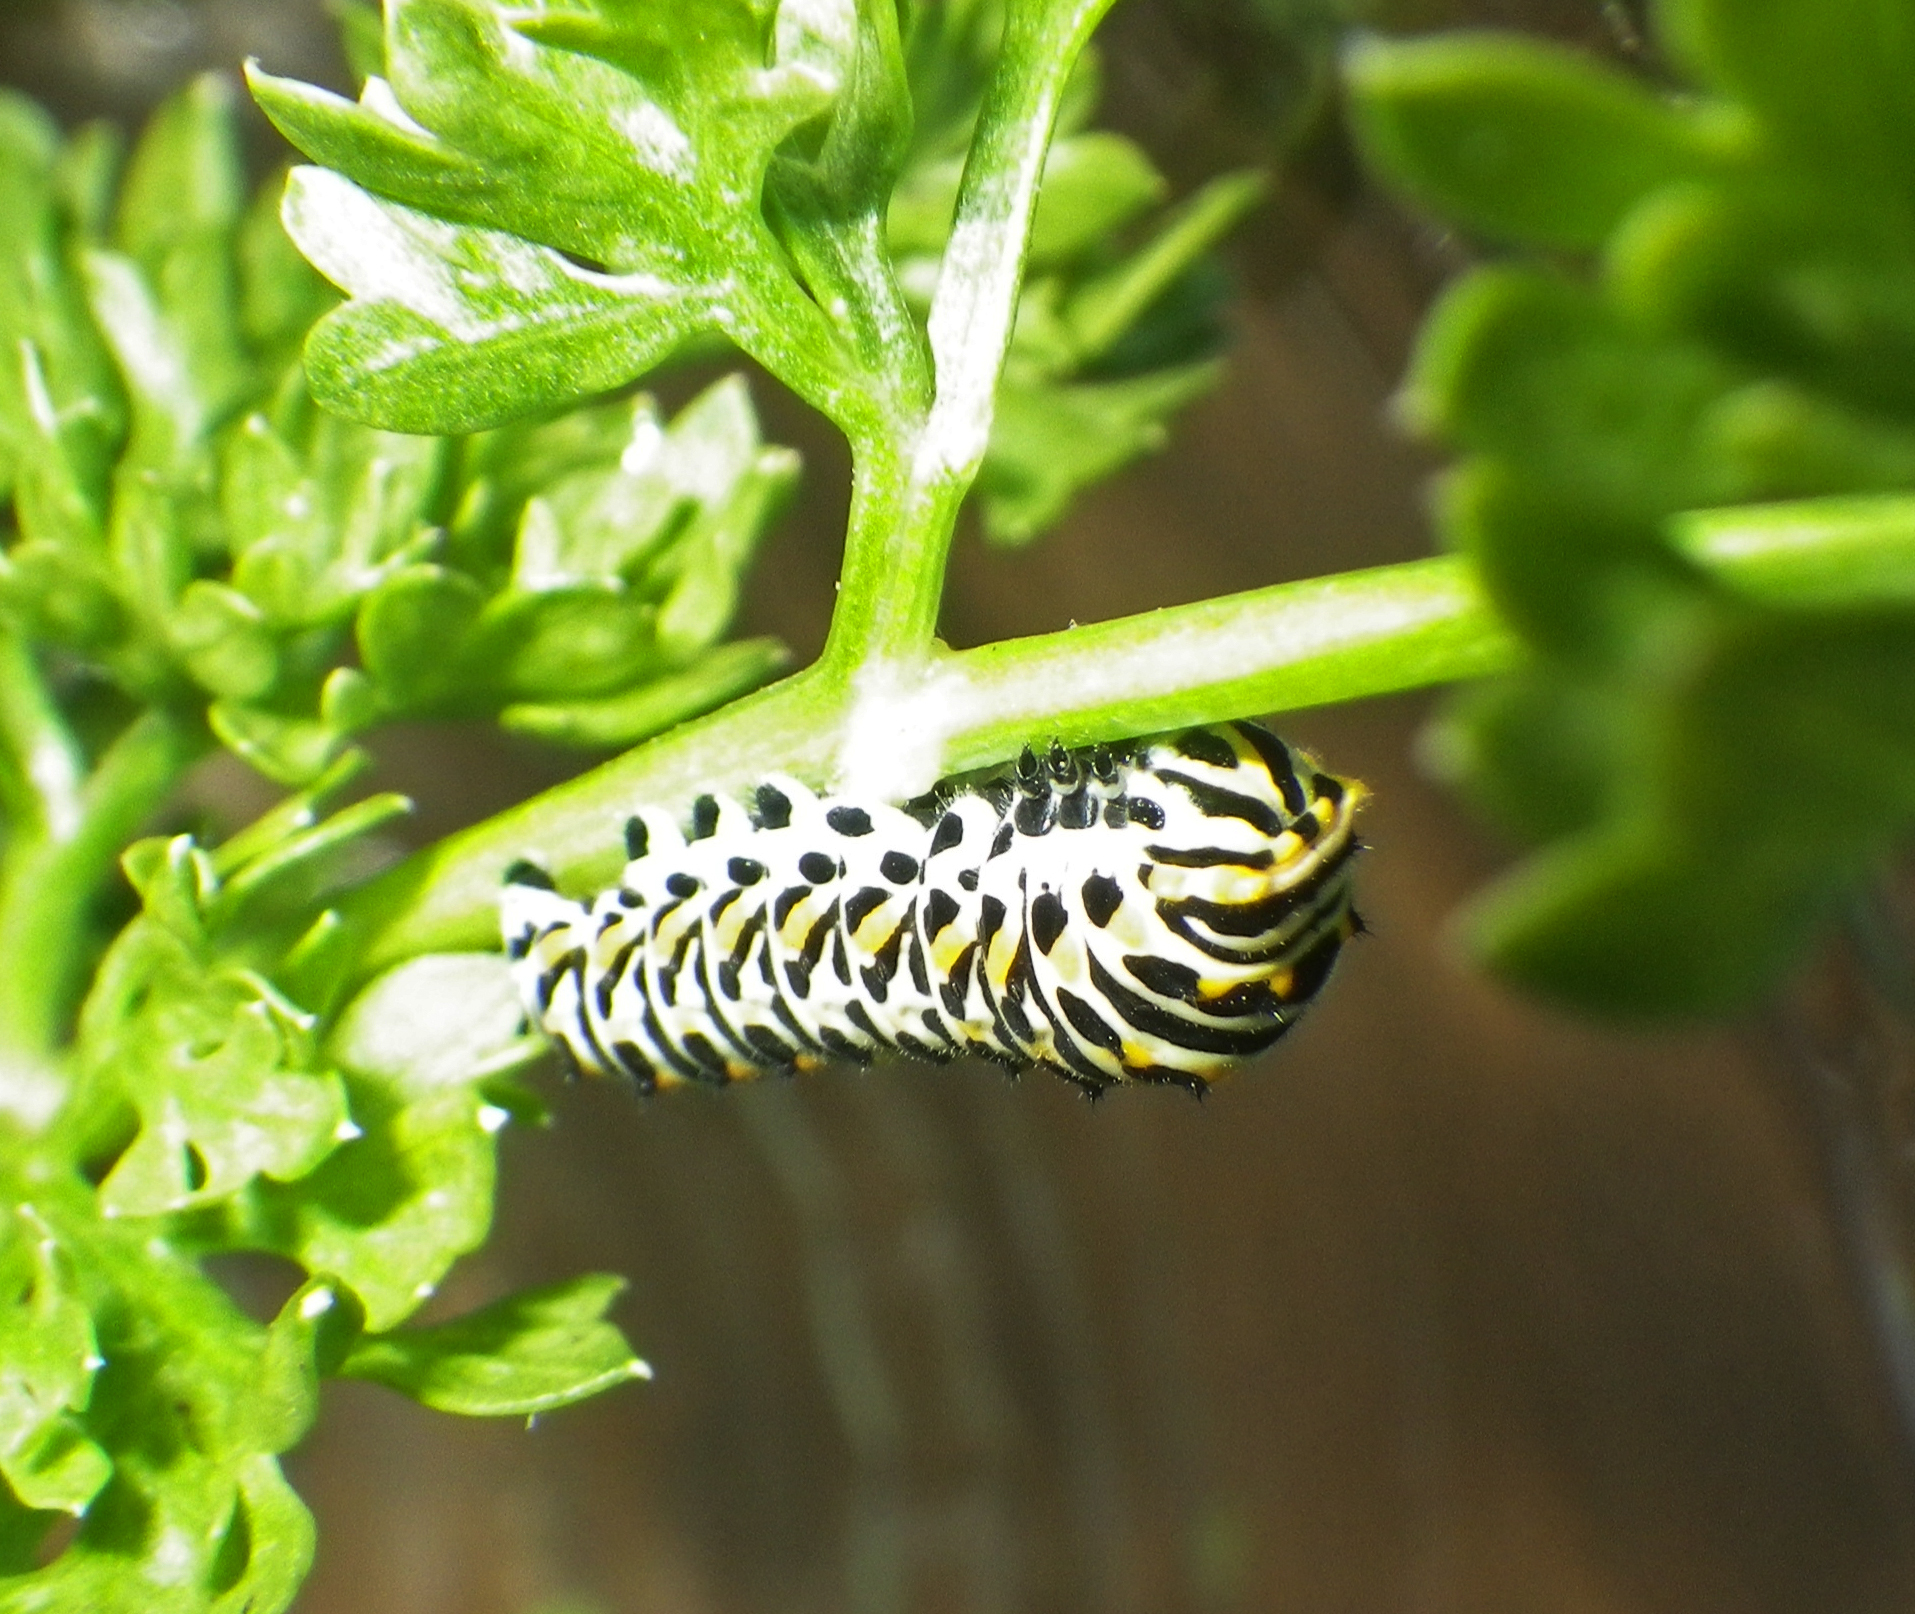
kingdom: Animalia
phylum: Arthropoda
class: Insecta
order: Lepidoptera
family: Papilionidae
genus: Papilio
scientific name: Papilio machaon
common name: Swallowtail
